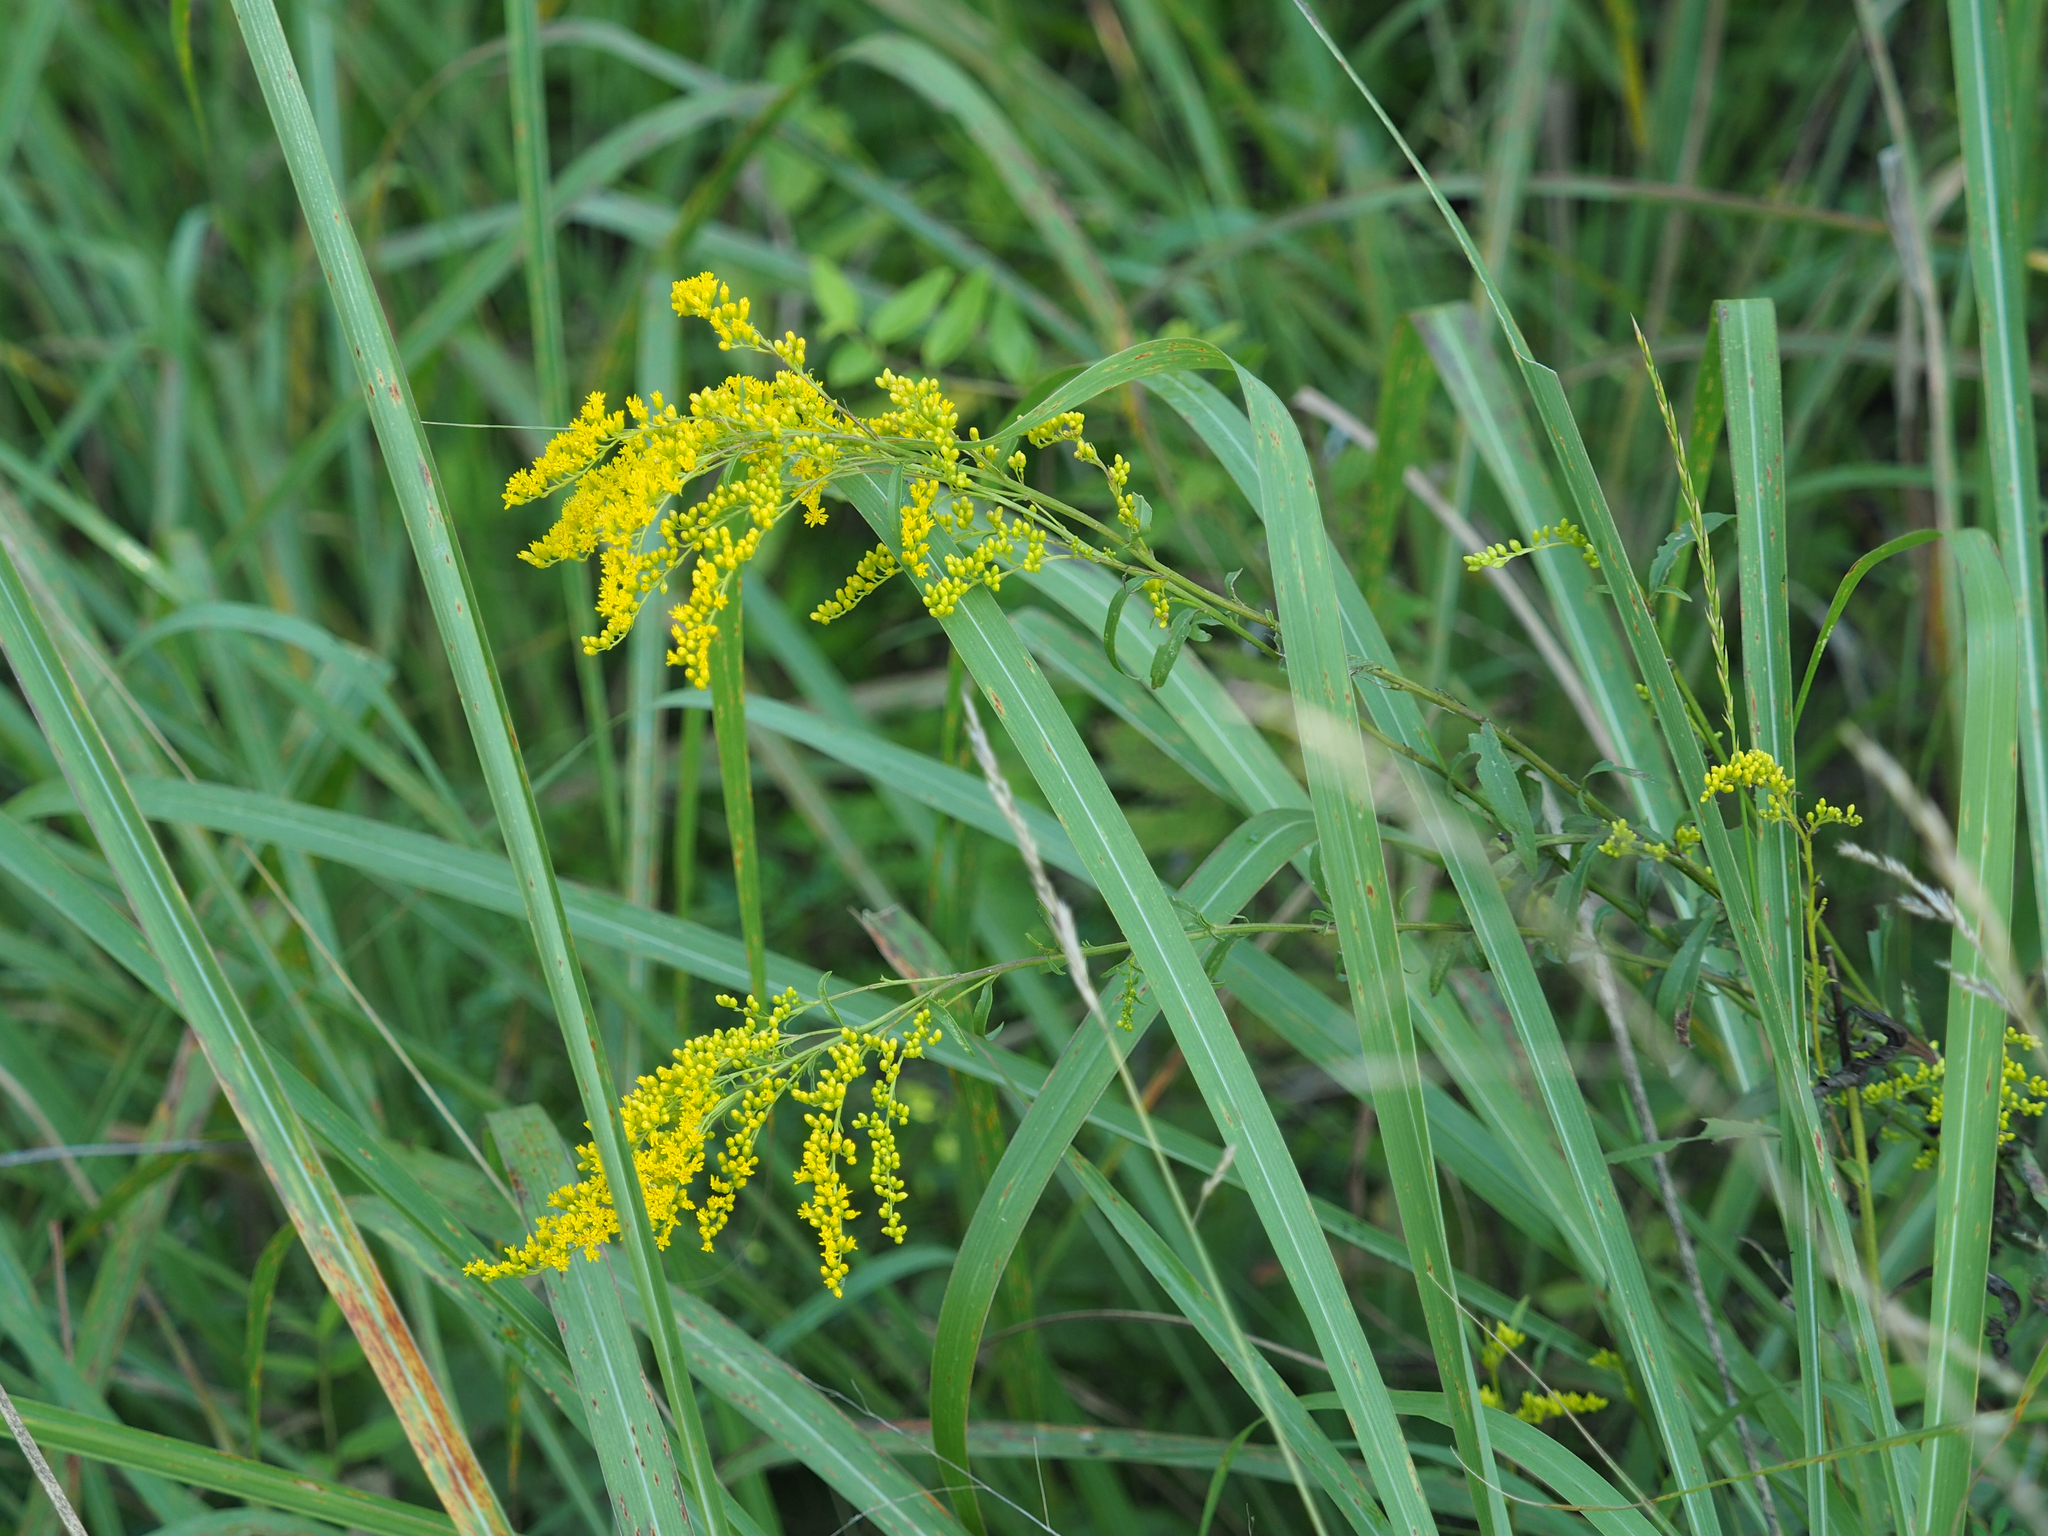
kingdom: Plantae
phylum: Tracheophyta
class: Magnoliopsida
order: Asterales
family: Asteraceae
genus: Solidago
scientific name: Solidago juncea
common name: Early goldenrod
